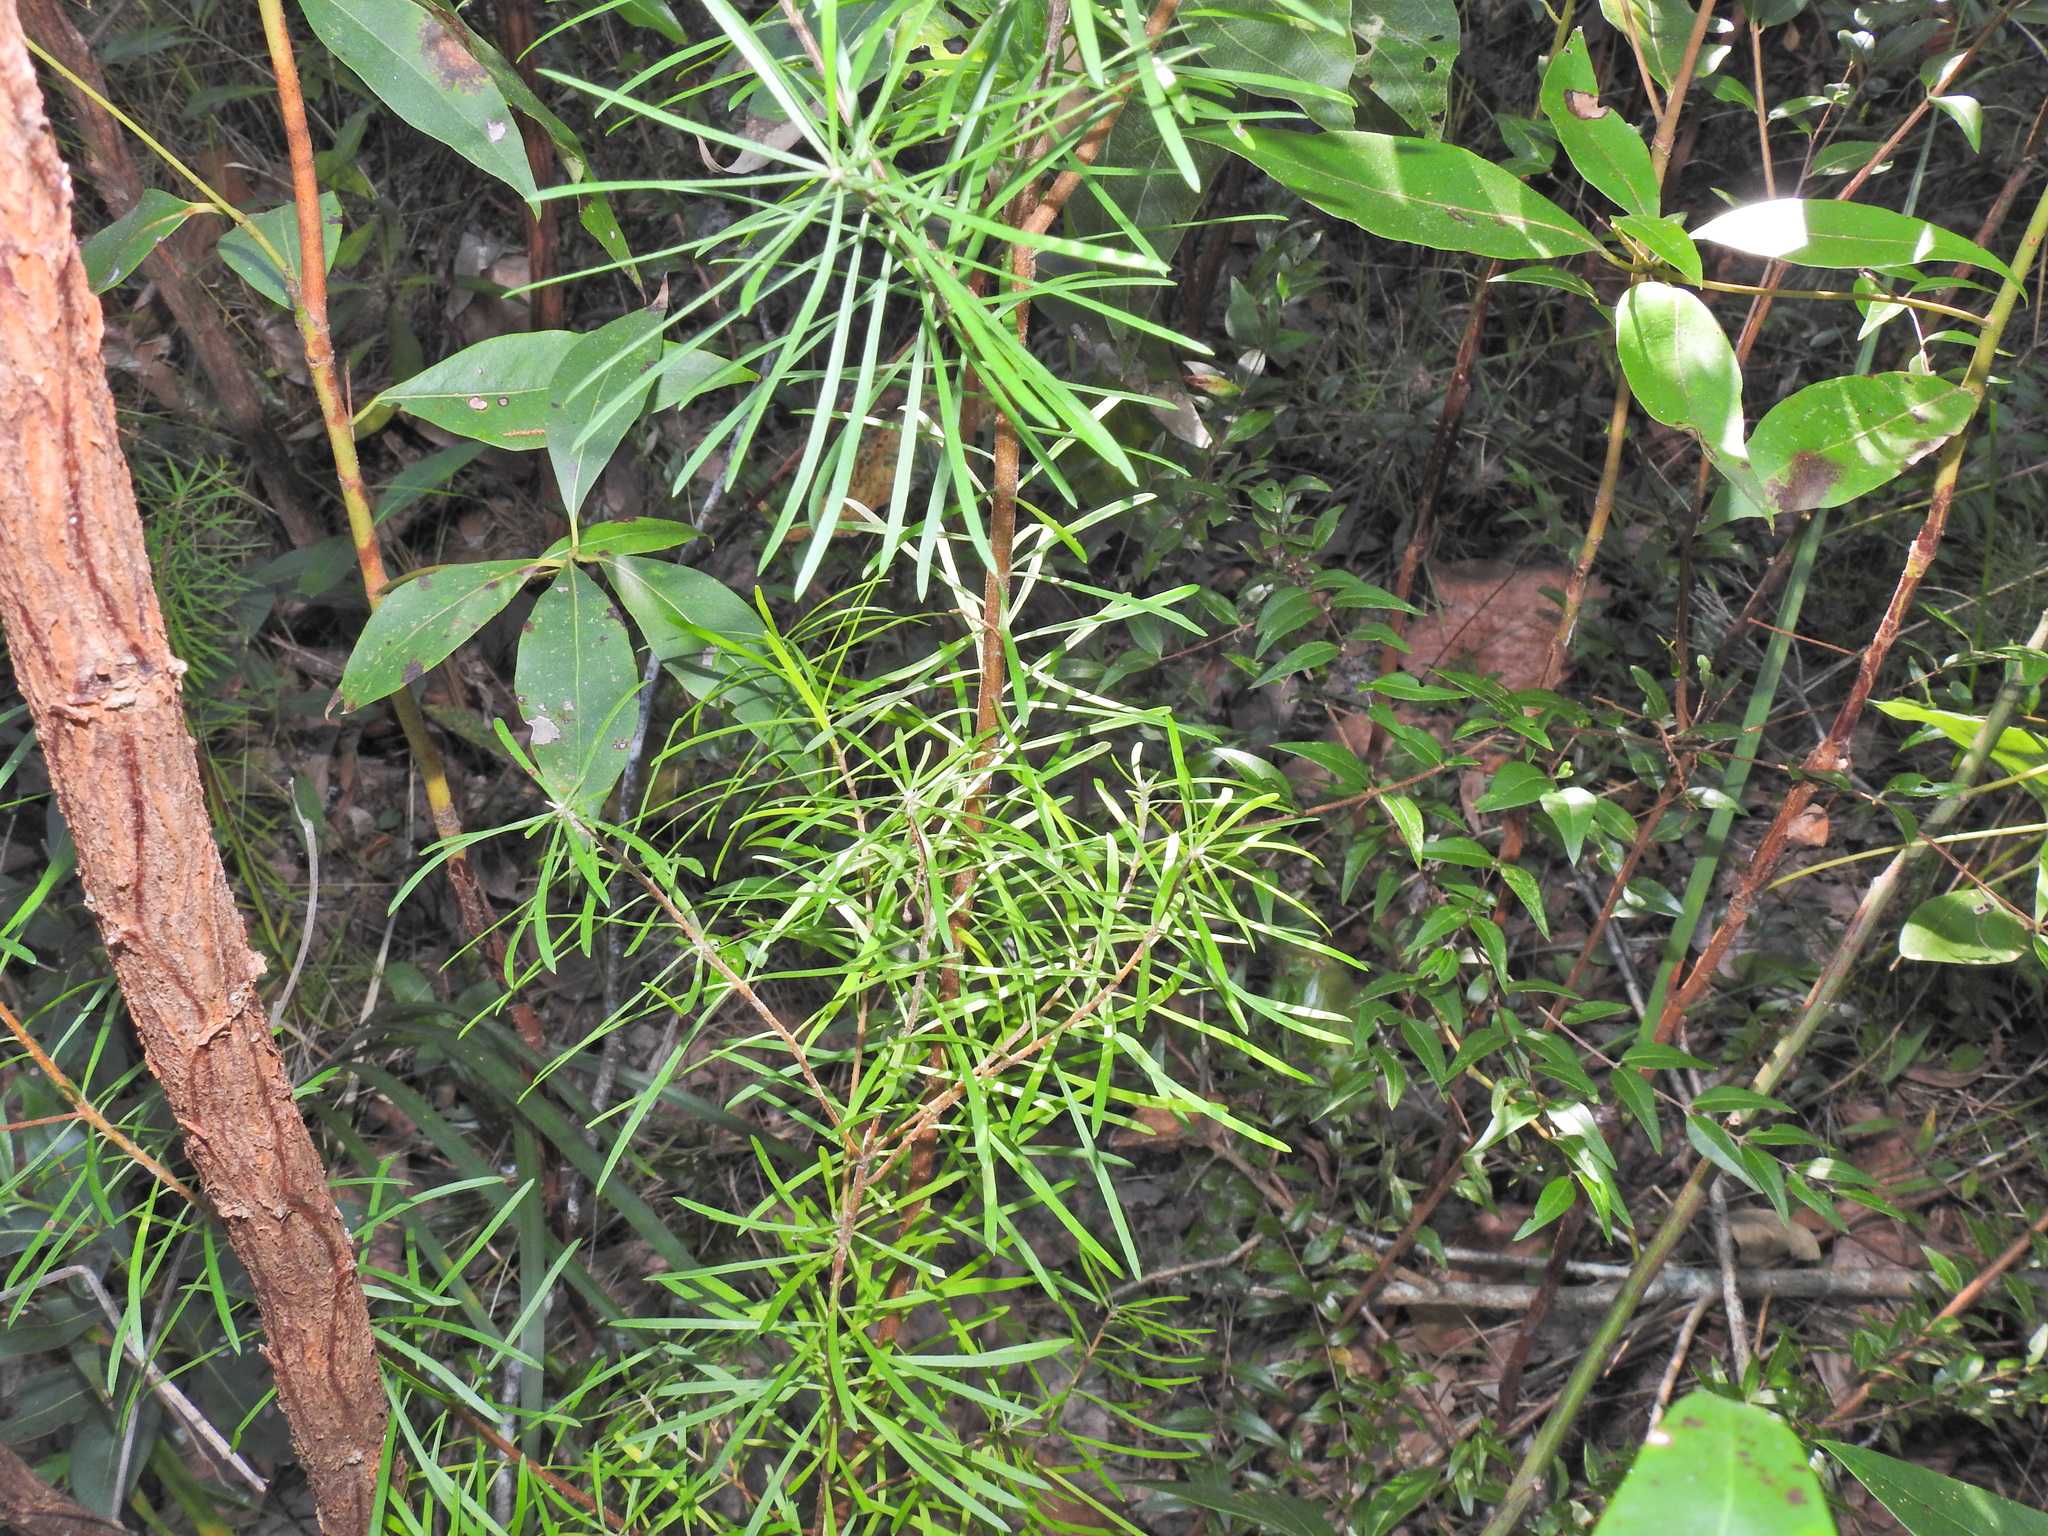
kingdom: Plantae
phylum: Tracheophyta
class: Magnoliopsida
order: Proteales
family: Proteaceae
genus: Persoonia
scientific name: Persoonia virgata
